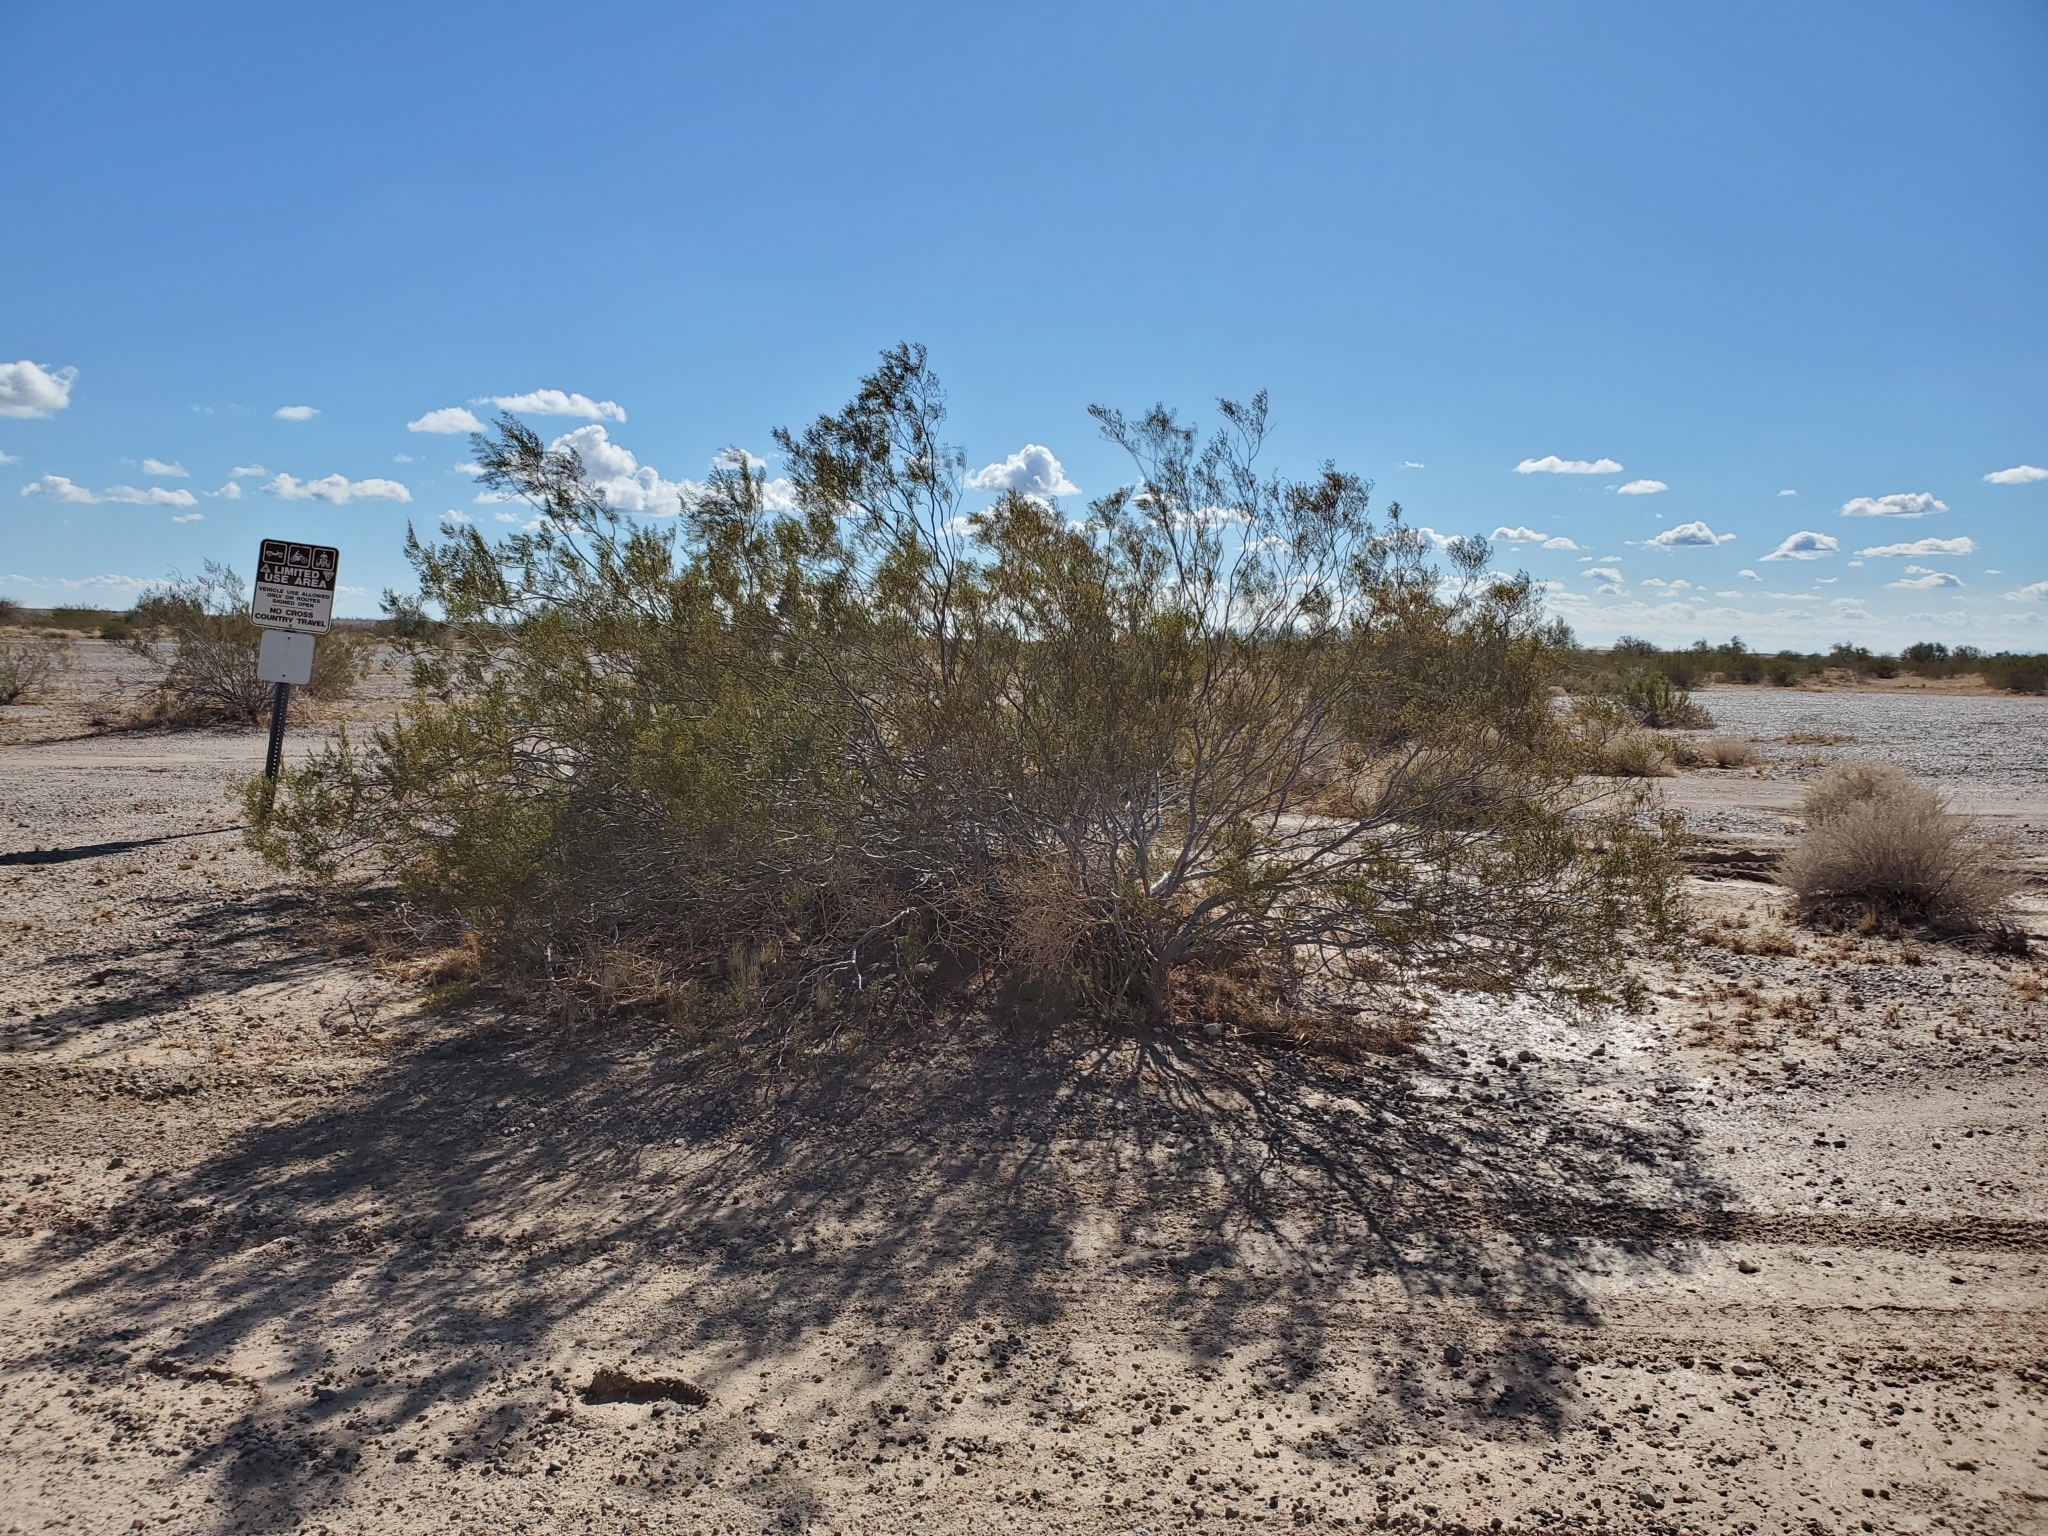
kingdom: Plantae
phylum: Tracheophyta
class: Magnoliopsida
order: Zygophyllales
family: Zygophyllaceae
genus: Larrea
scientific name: Larrea tridentata
